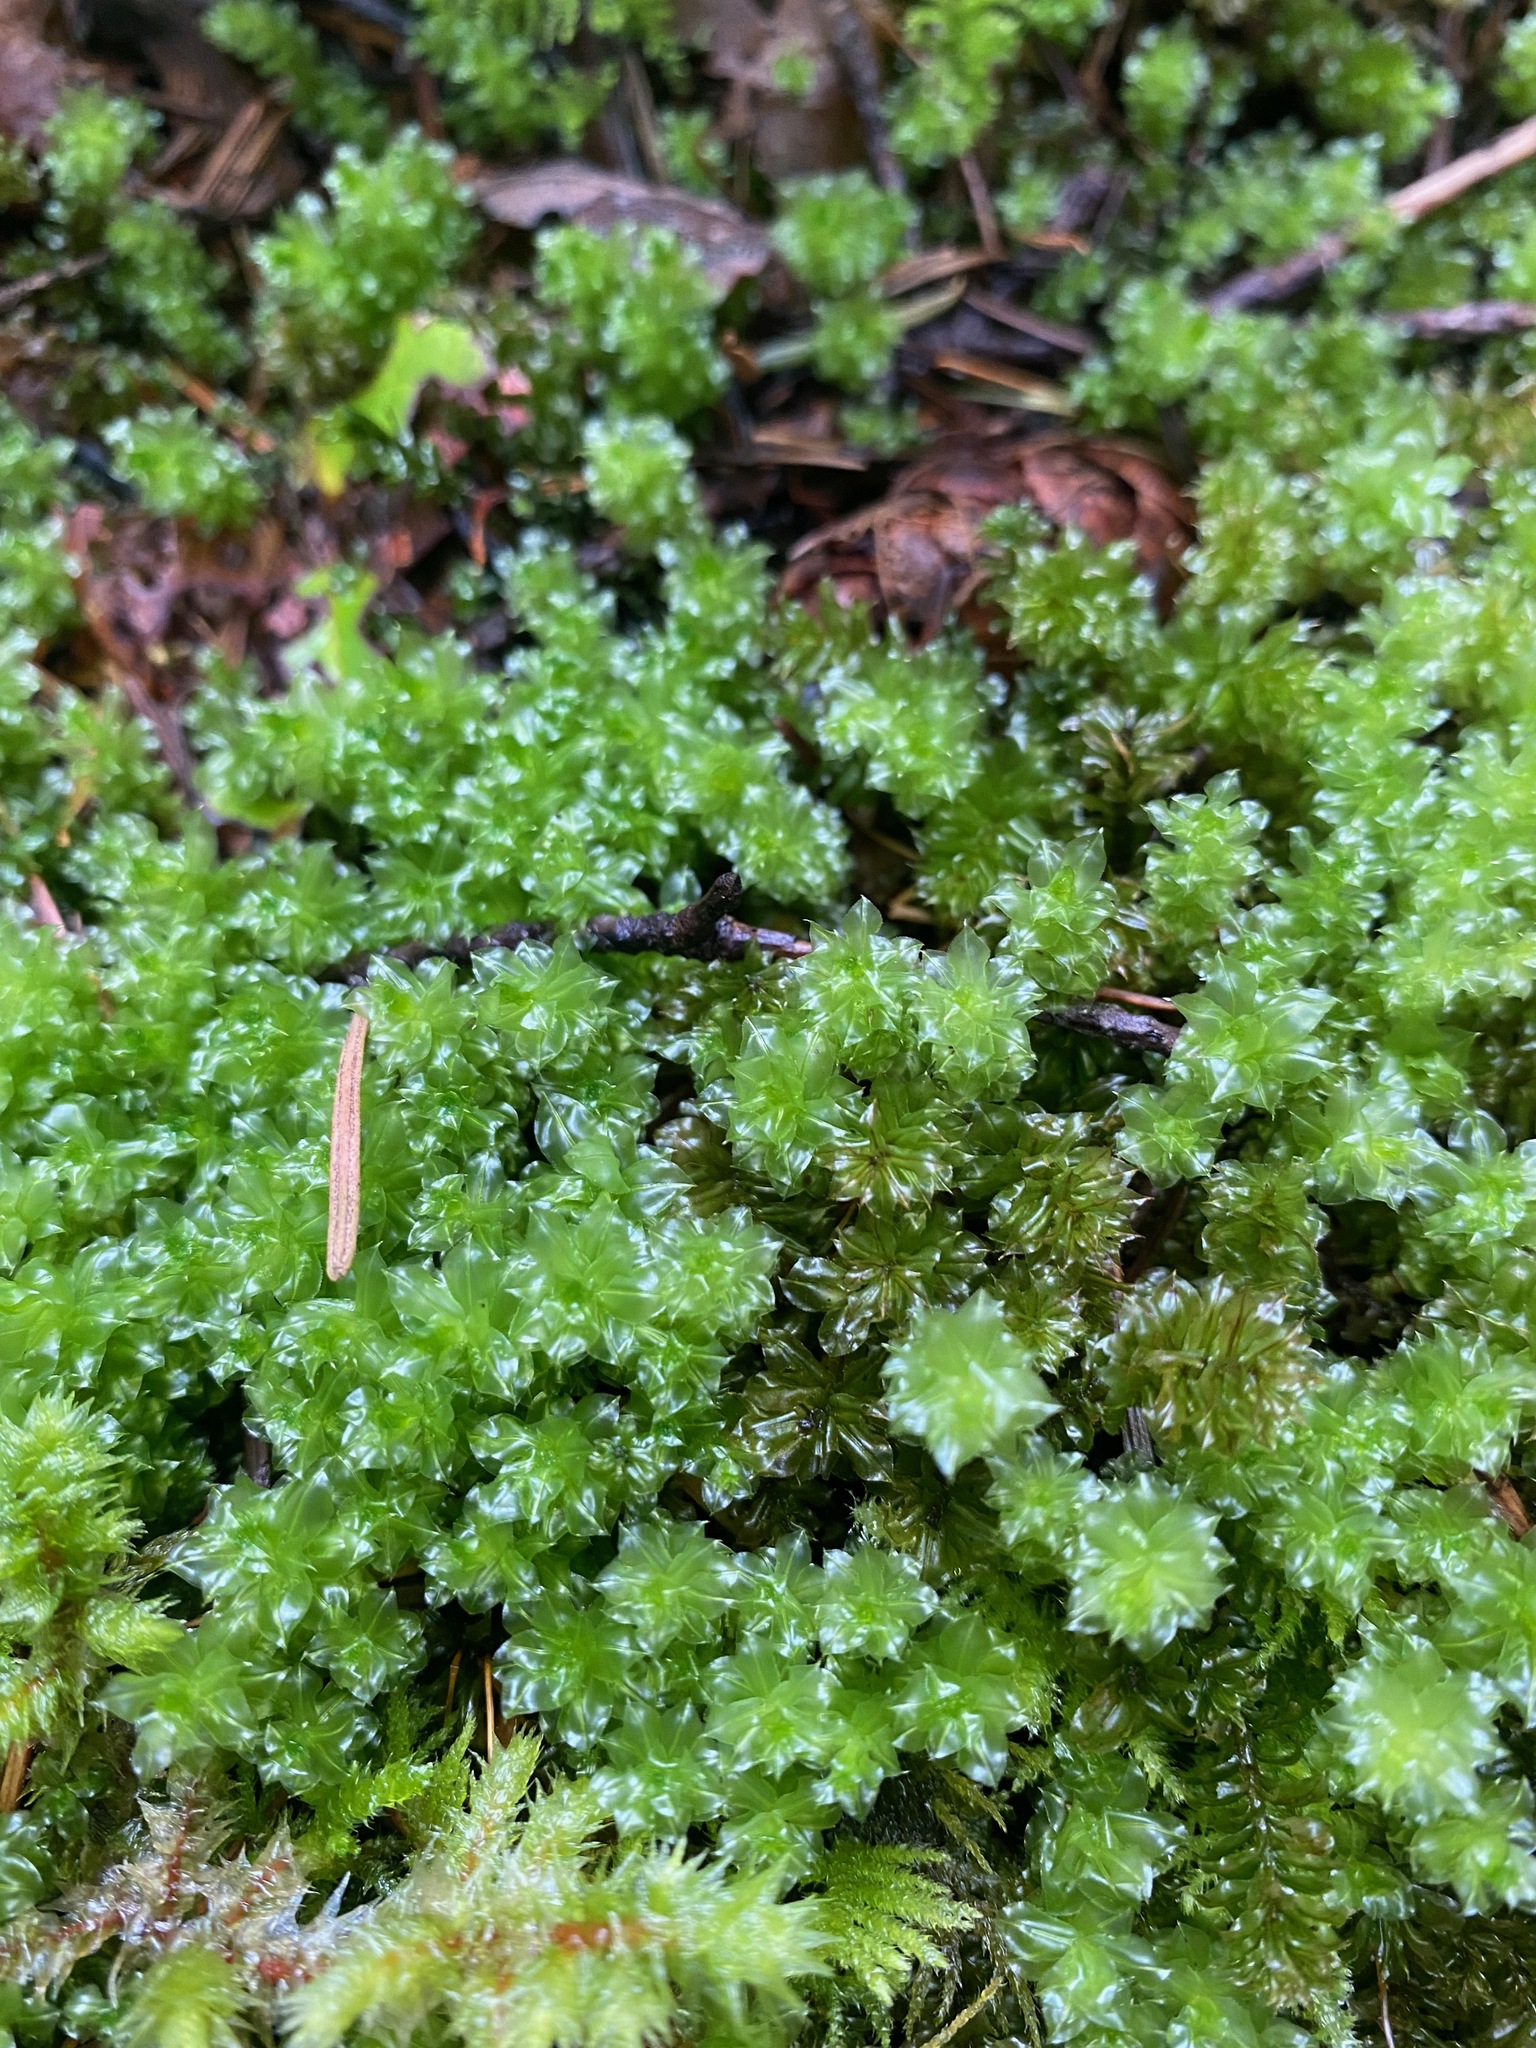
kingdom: Plantae
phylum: Bryophyta
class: Bryopsida
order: Bryales
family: Mniaceae
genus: Plagiomnium
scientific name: Plagiomnium venustum
